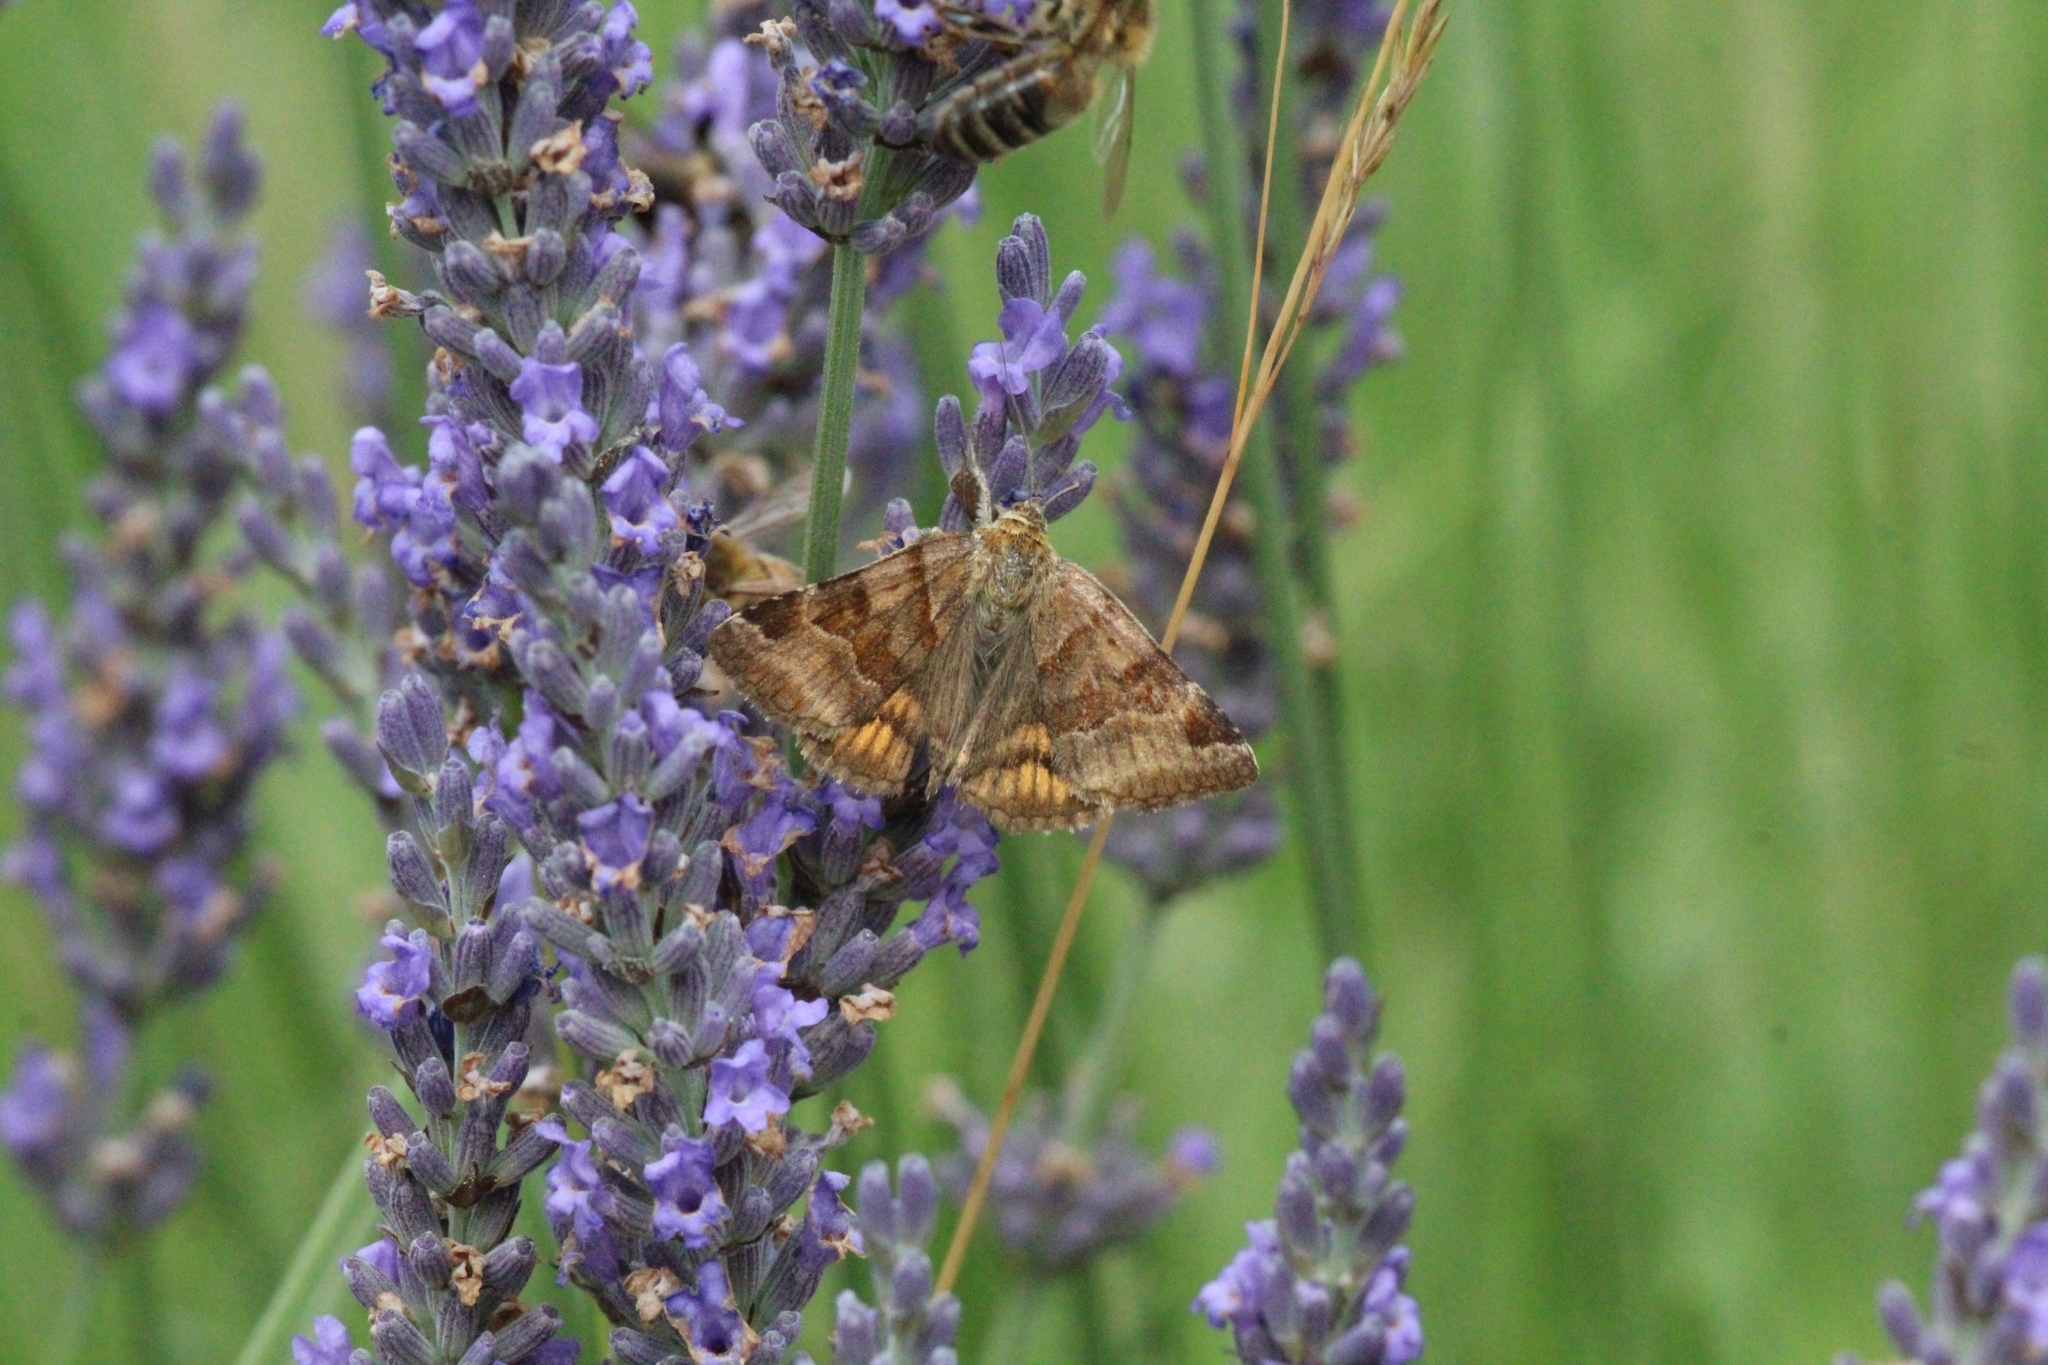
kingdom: Animalia
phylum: Arthropoda
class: Insecta
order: Lepidoptera
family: Erebidae
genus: Euclidia
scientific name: Euclidia glyphica
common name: Burnet companion
